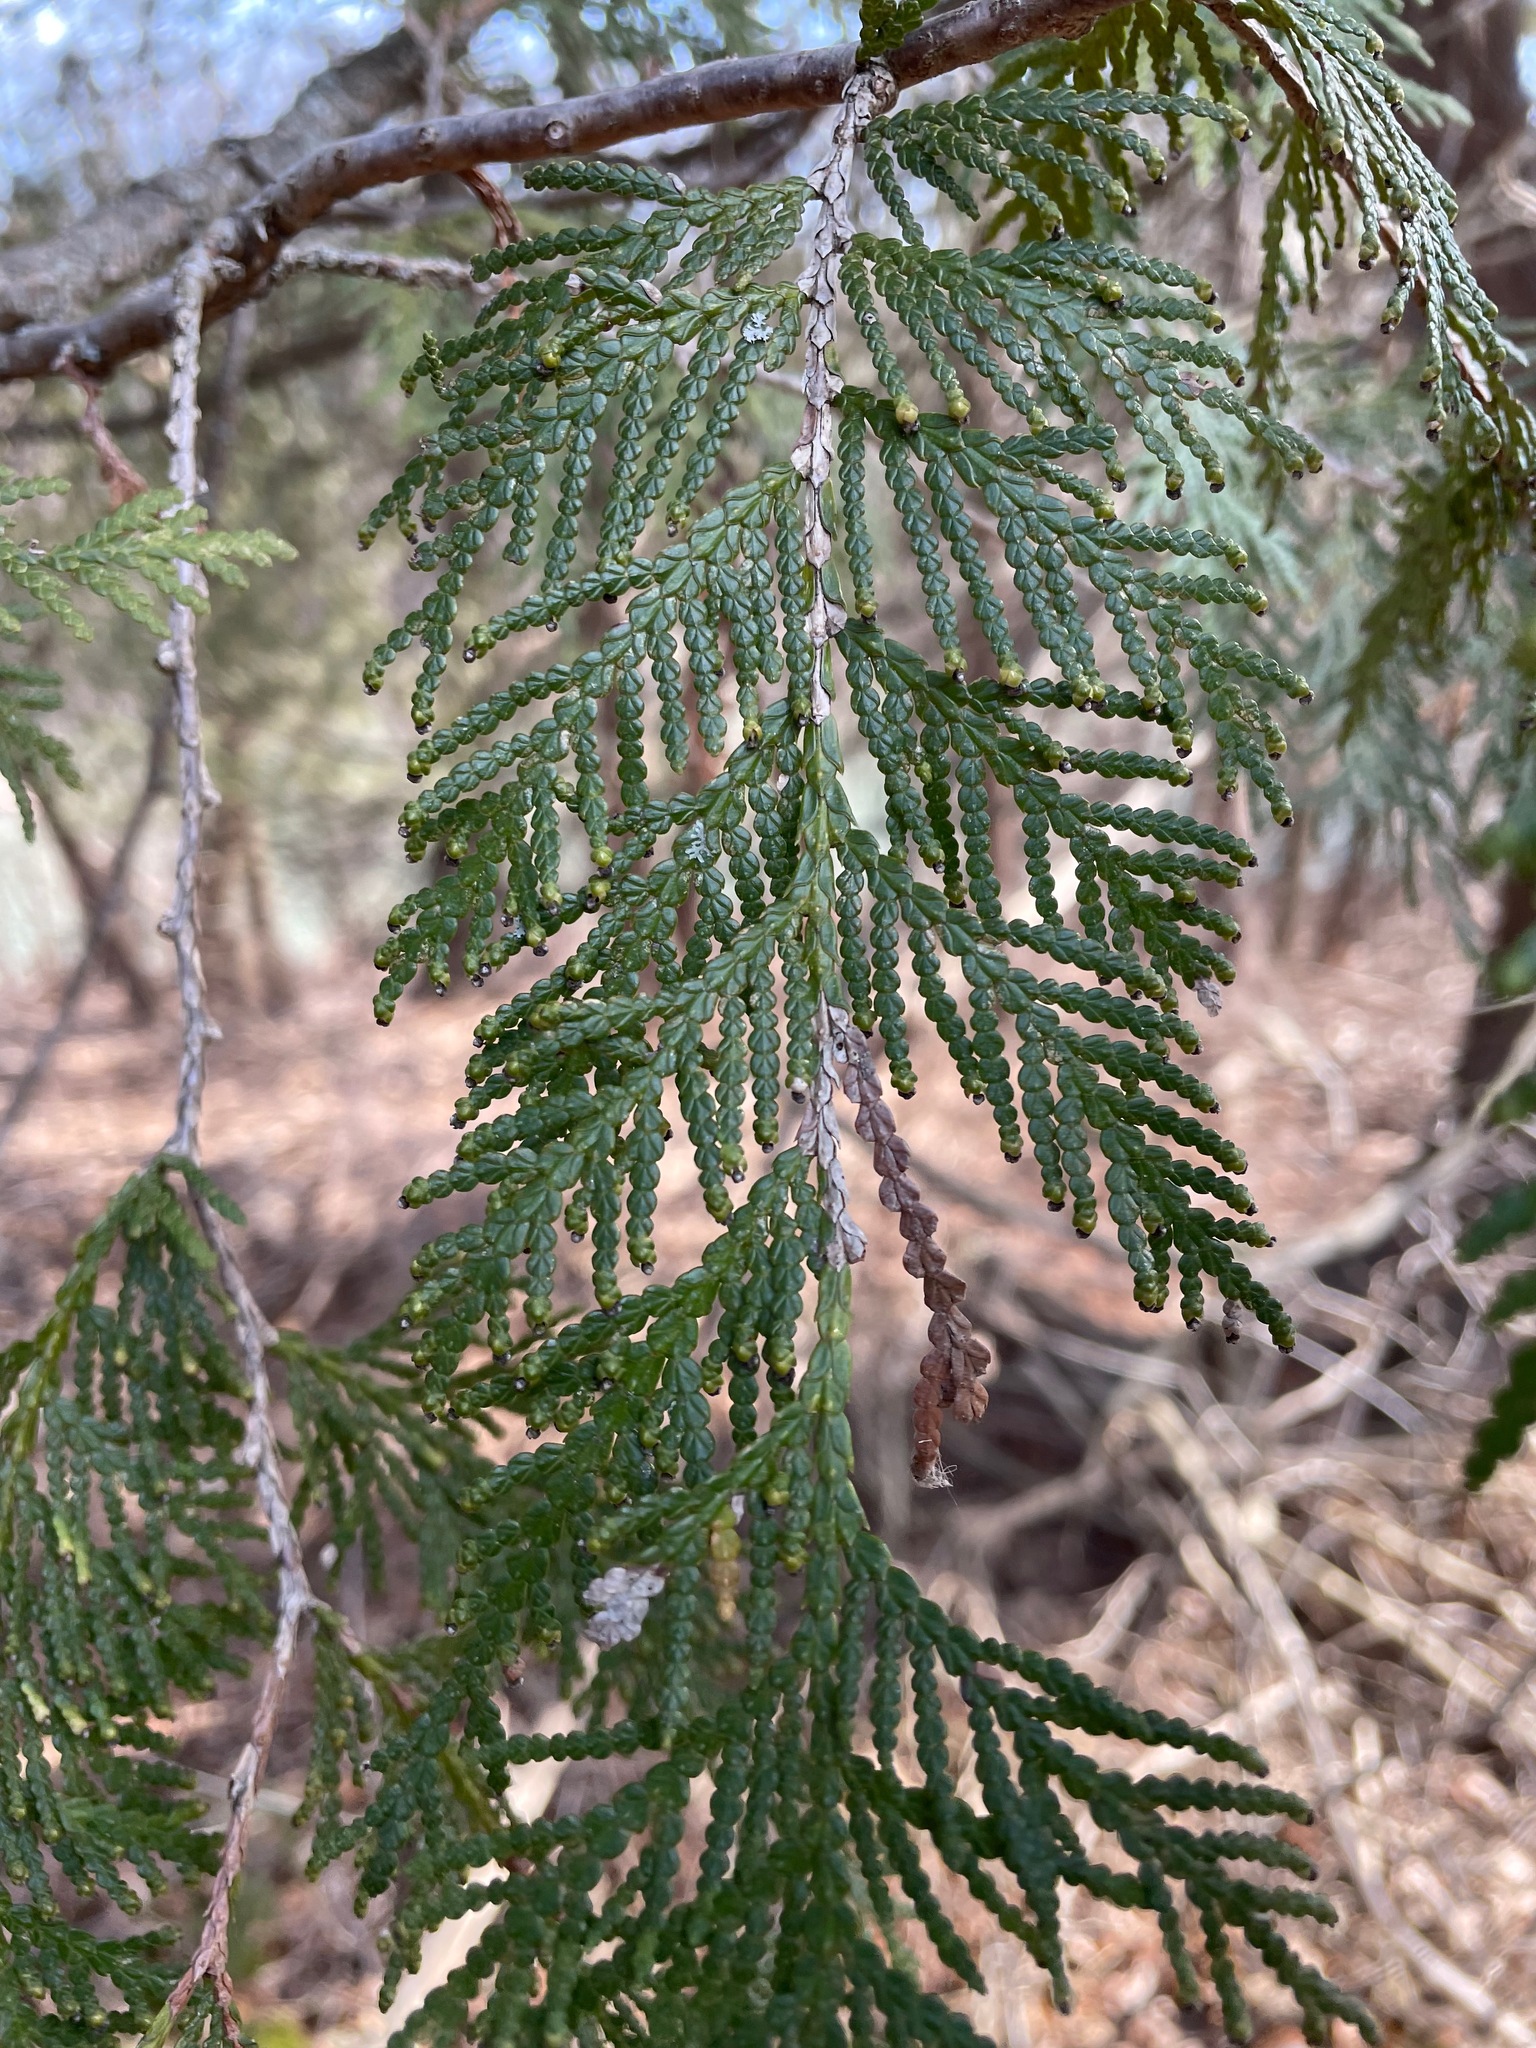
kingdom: Plantae
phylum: Tracheophyta
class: Pinopsida
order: Pinales
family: Cupressaceae
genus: Thuja
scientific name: Thuja occidentalis
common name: Northern white-cedar
